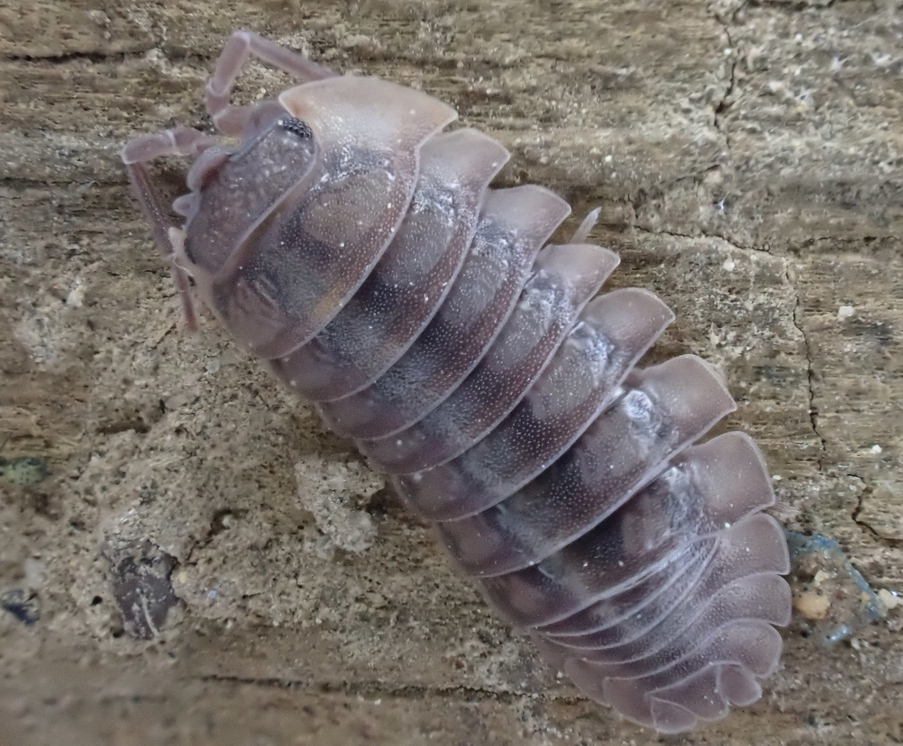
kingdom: Animalia
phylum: Arthropoda
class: Malacostraca
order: Isopoda
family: Armadillidiidae
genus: Armadillidium
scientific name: Armadillidium nasatum
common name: Isopod
